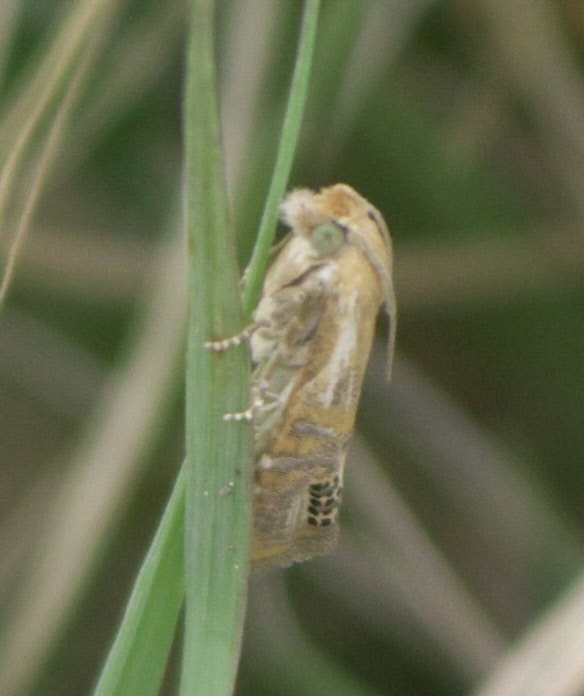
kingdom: Animalia
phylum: Arthropoda
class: Insecta
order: Lepidoptera
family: Tortricidae
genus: Pelochrista
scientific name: Pelochrista scintillana
